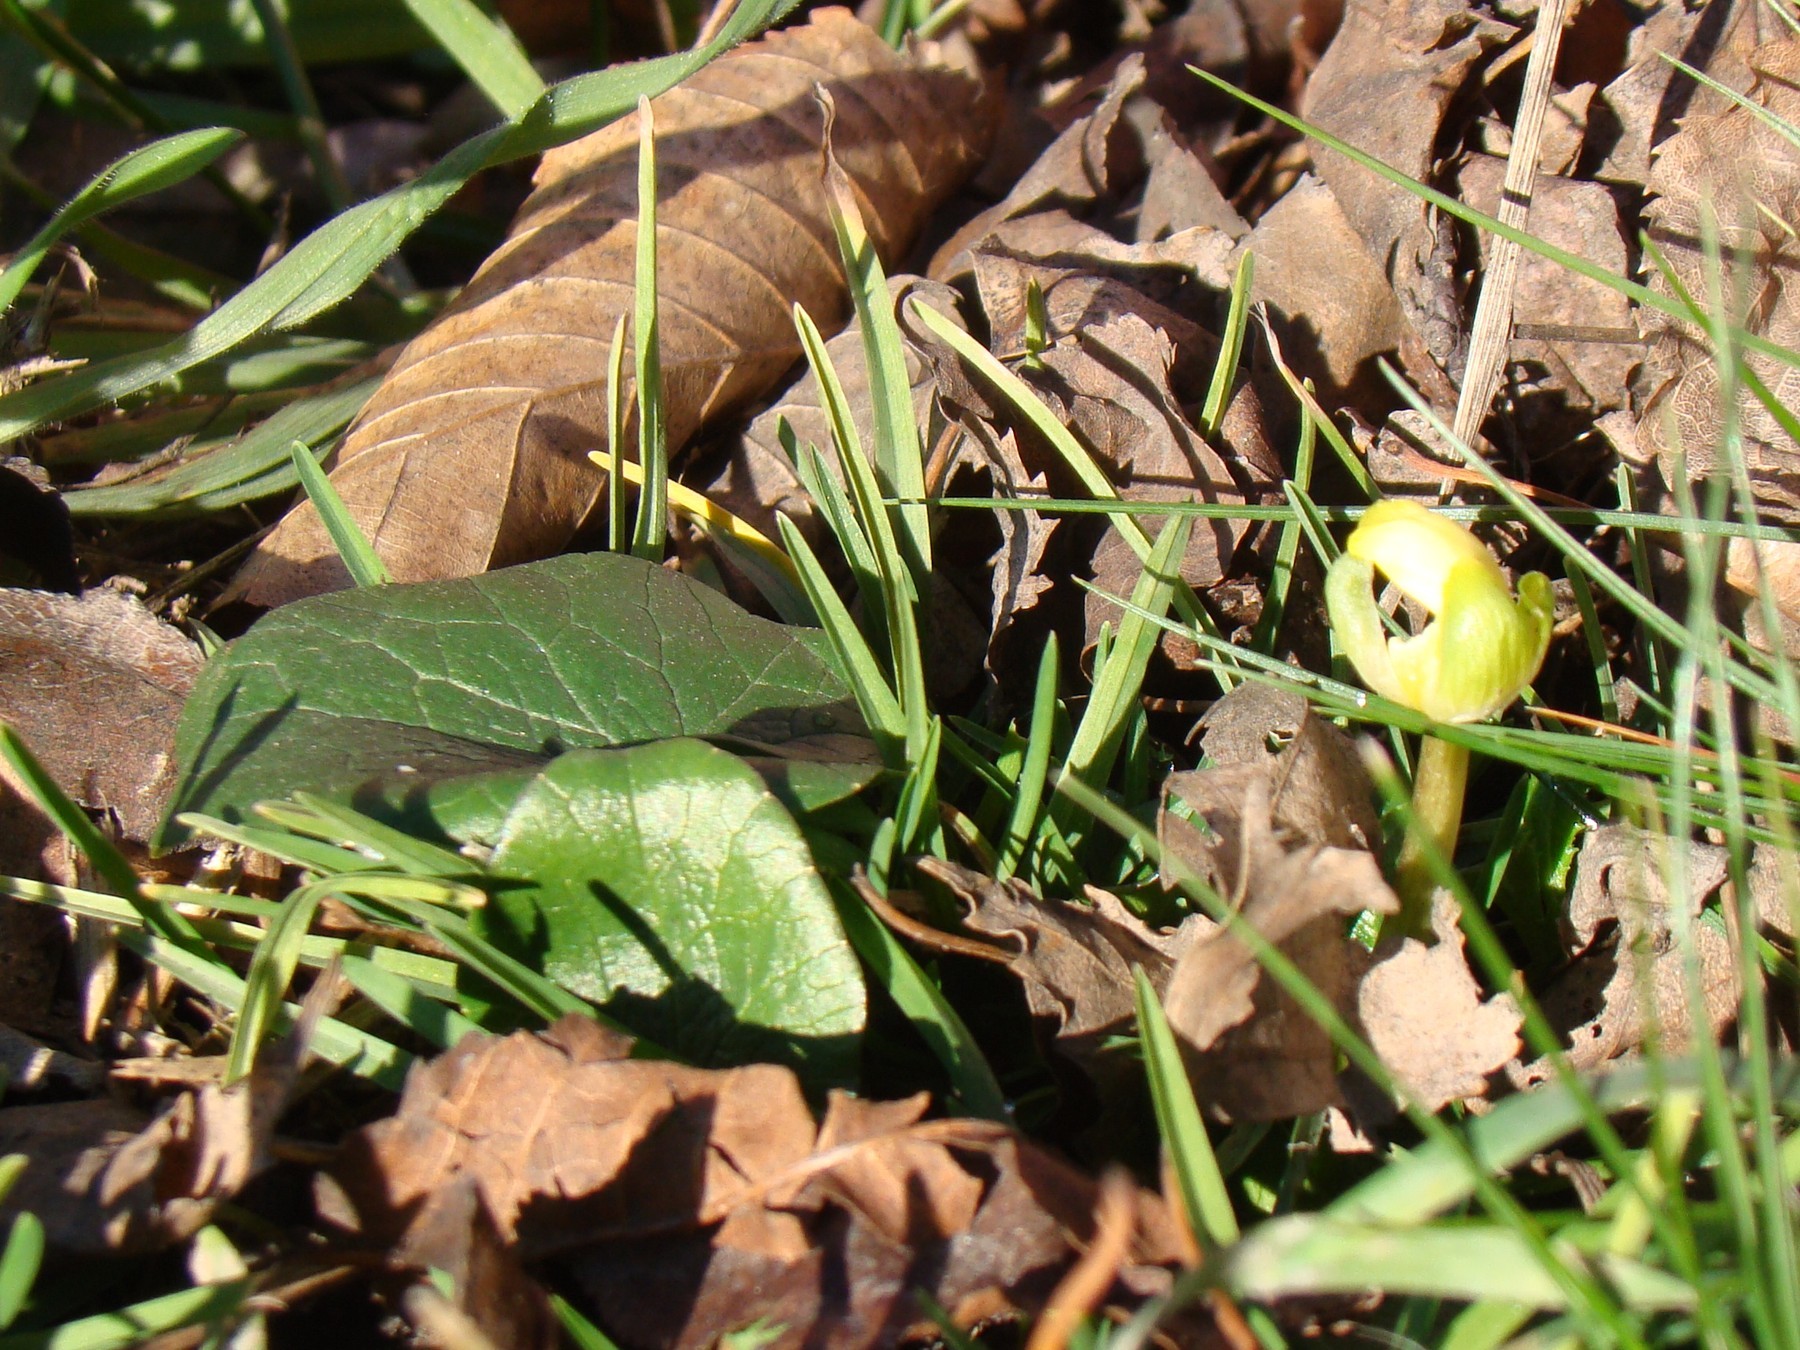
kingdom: Plantae
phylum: Tracheophyta
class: Magnoliopsida
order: Ranunculales
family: Ranunculaceae
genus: Ficaria
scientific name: Ficaria
